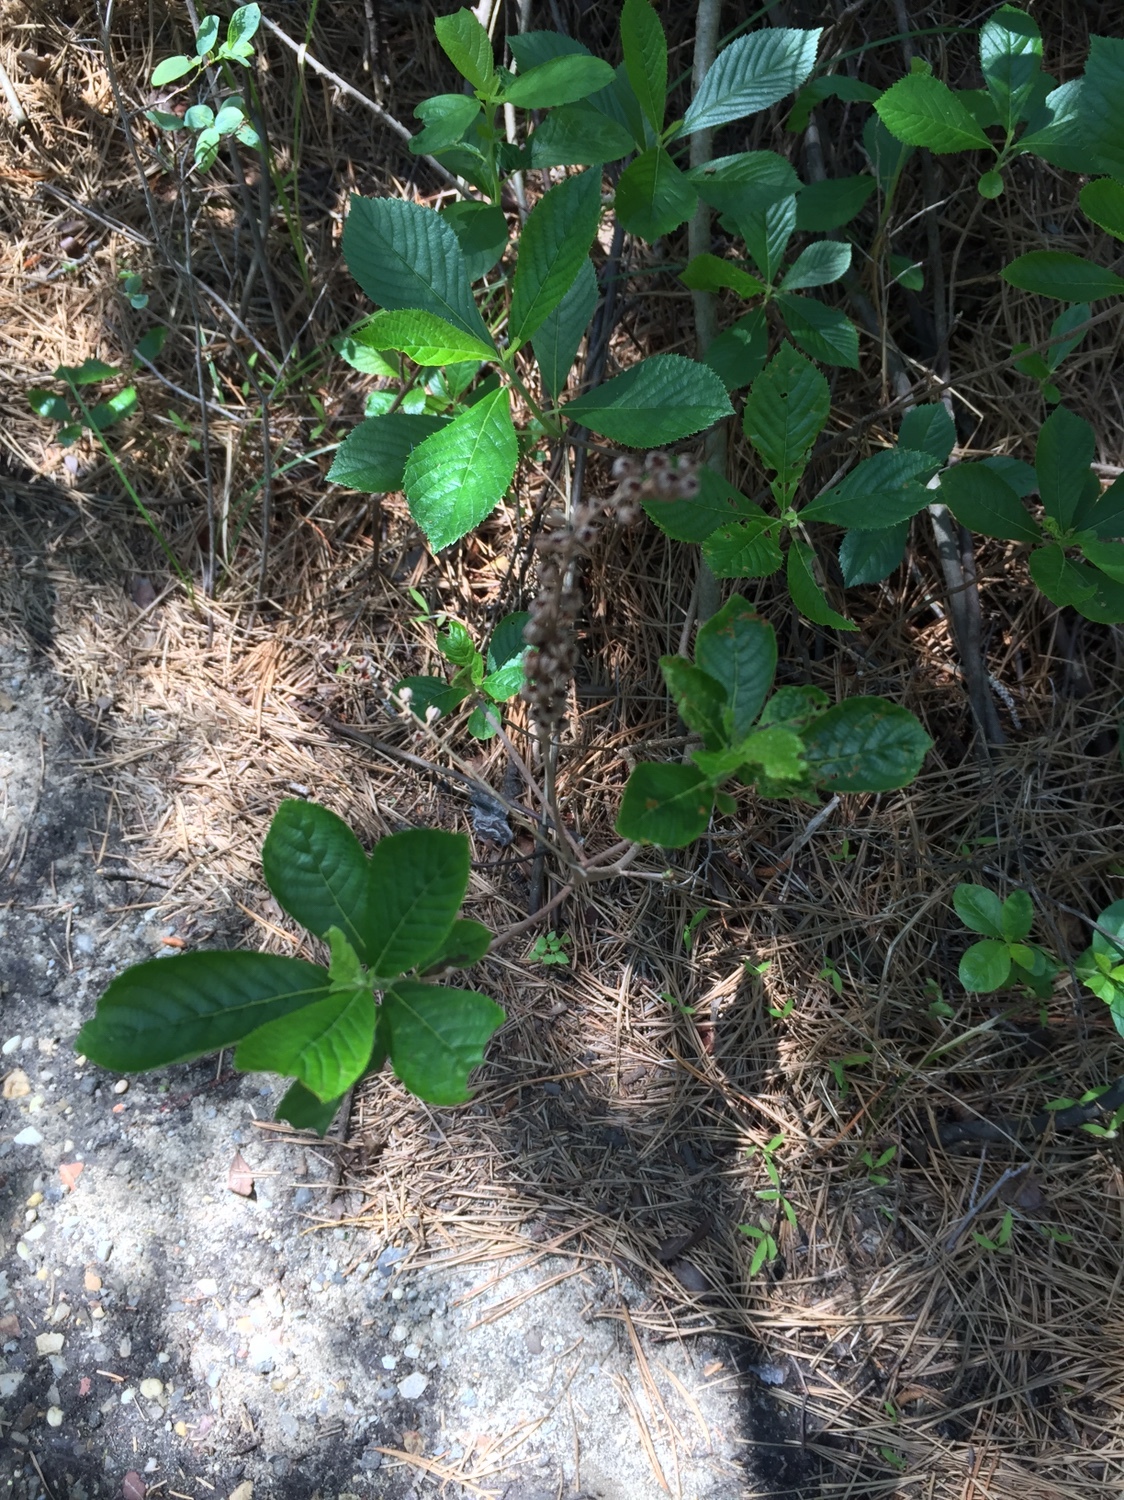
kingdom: Plantae
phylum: Tracheophyta
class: Magnoliopsida
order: Ericales
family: Clethraceae
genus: Clethra
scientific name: Clethra alnifolia
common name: Sweet pepperbush
